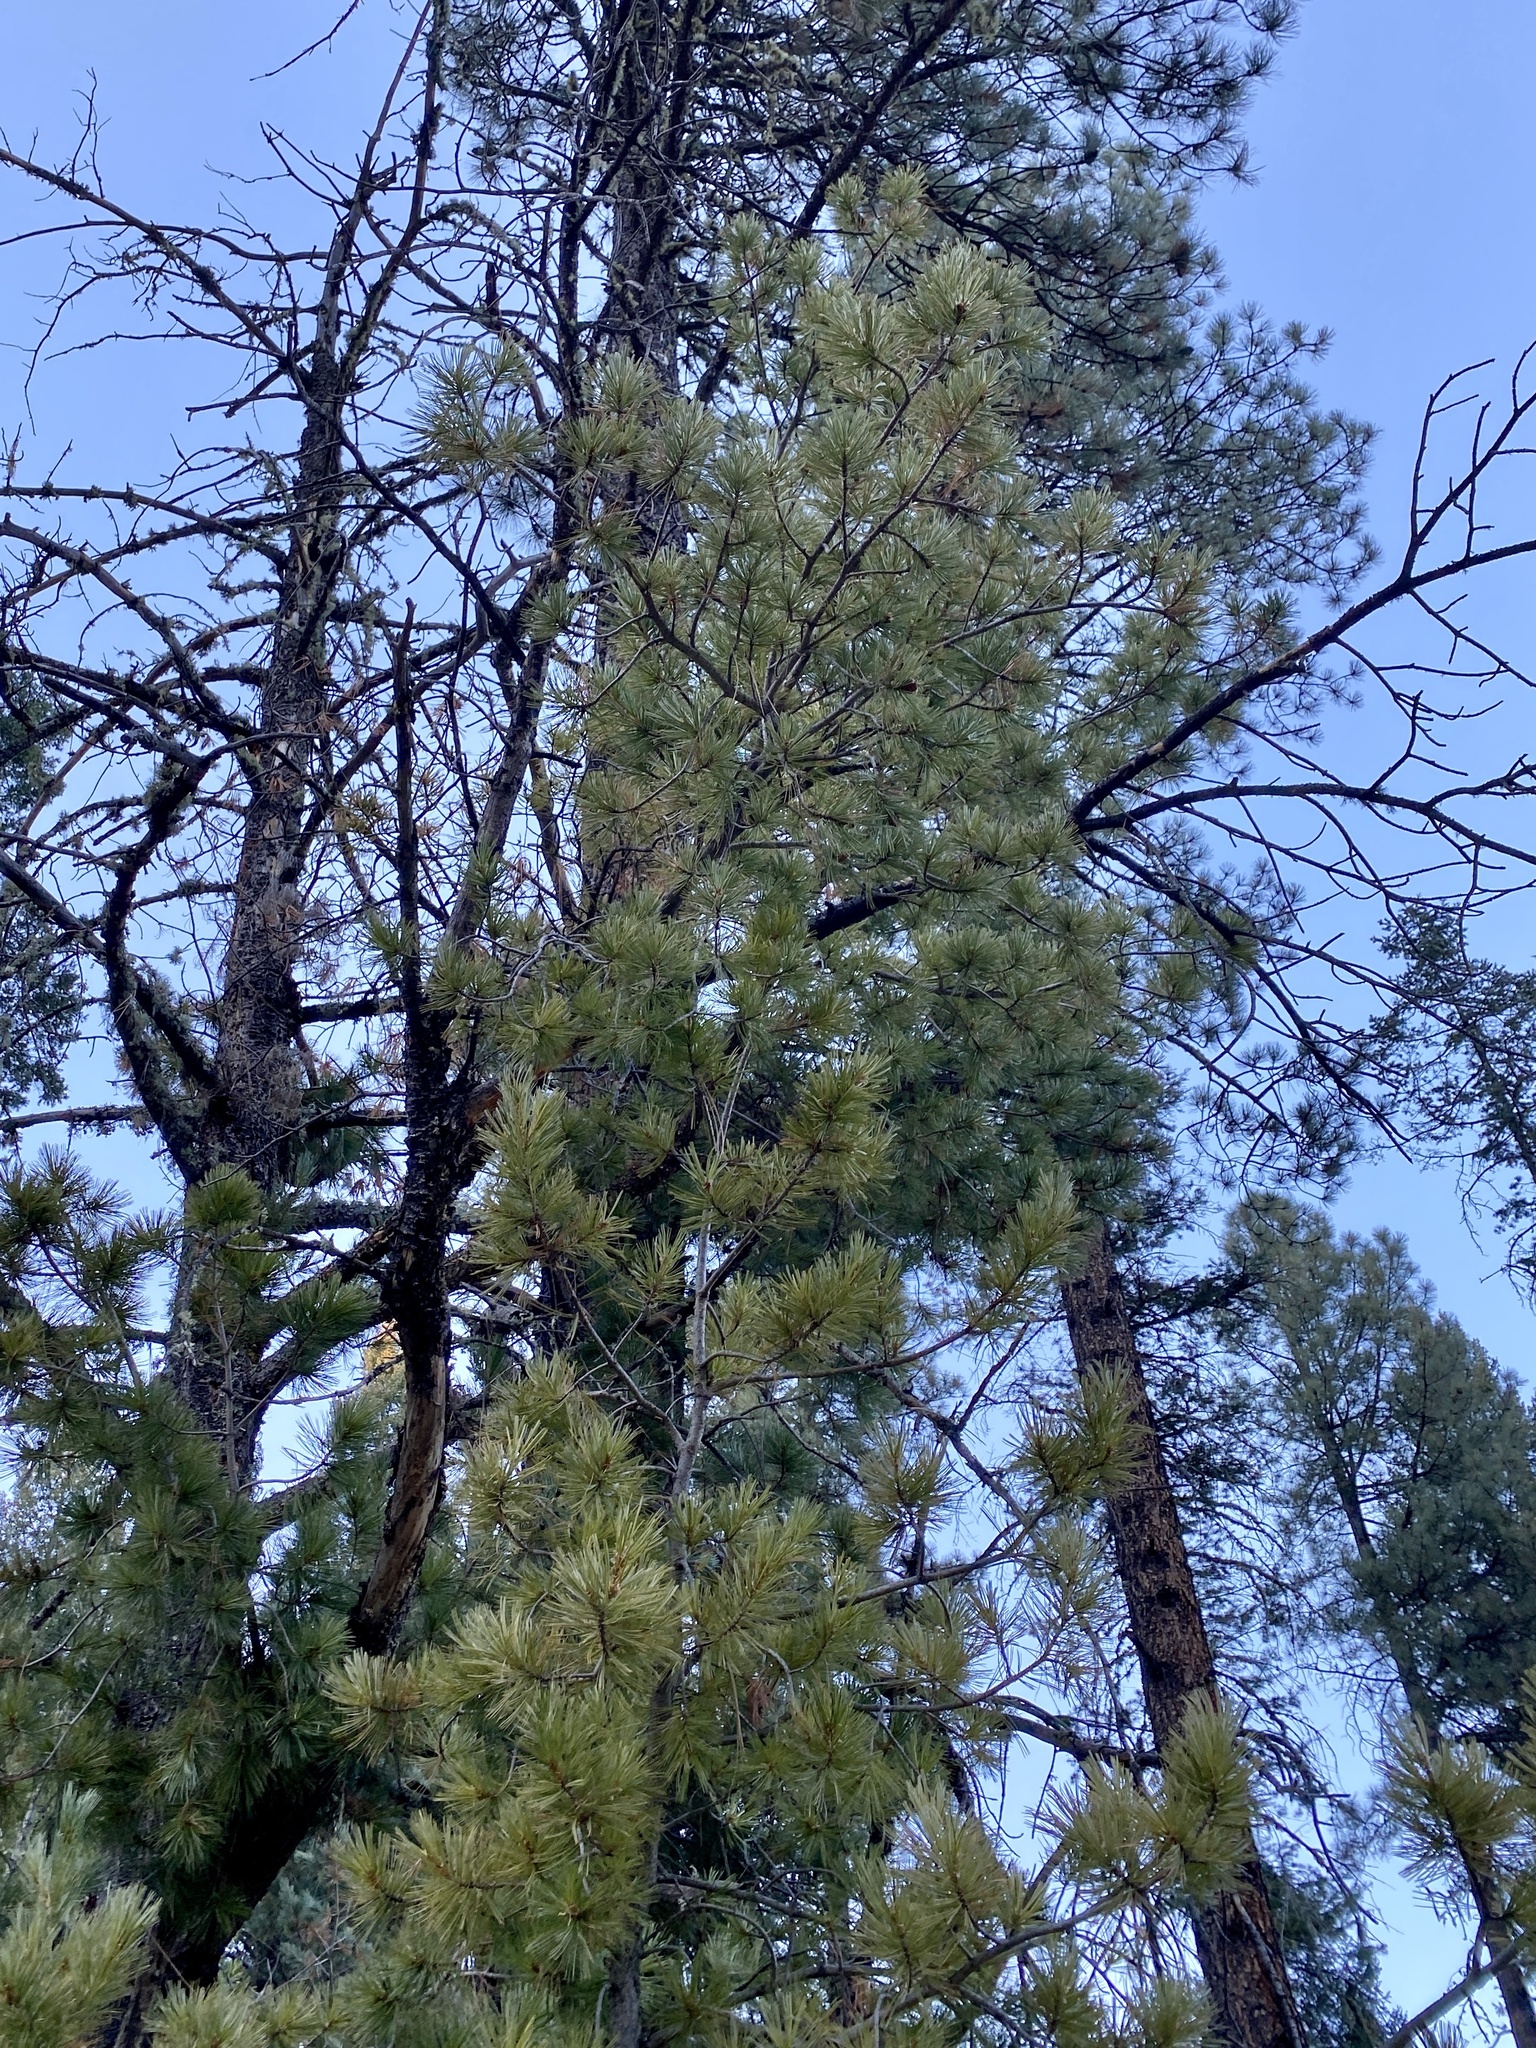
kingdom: Plantae
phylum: Tracheophyta
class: Pinopsida
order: Pinales
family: Pinaceae
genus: Pinus
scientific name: Pinus strobiformis
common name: Southwestern white pine
